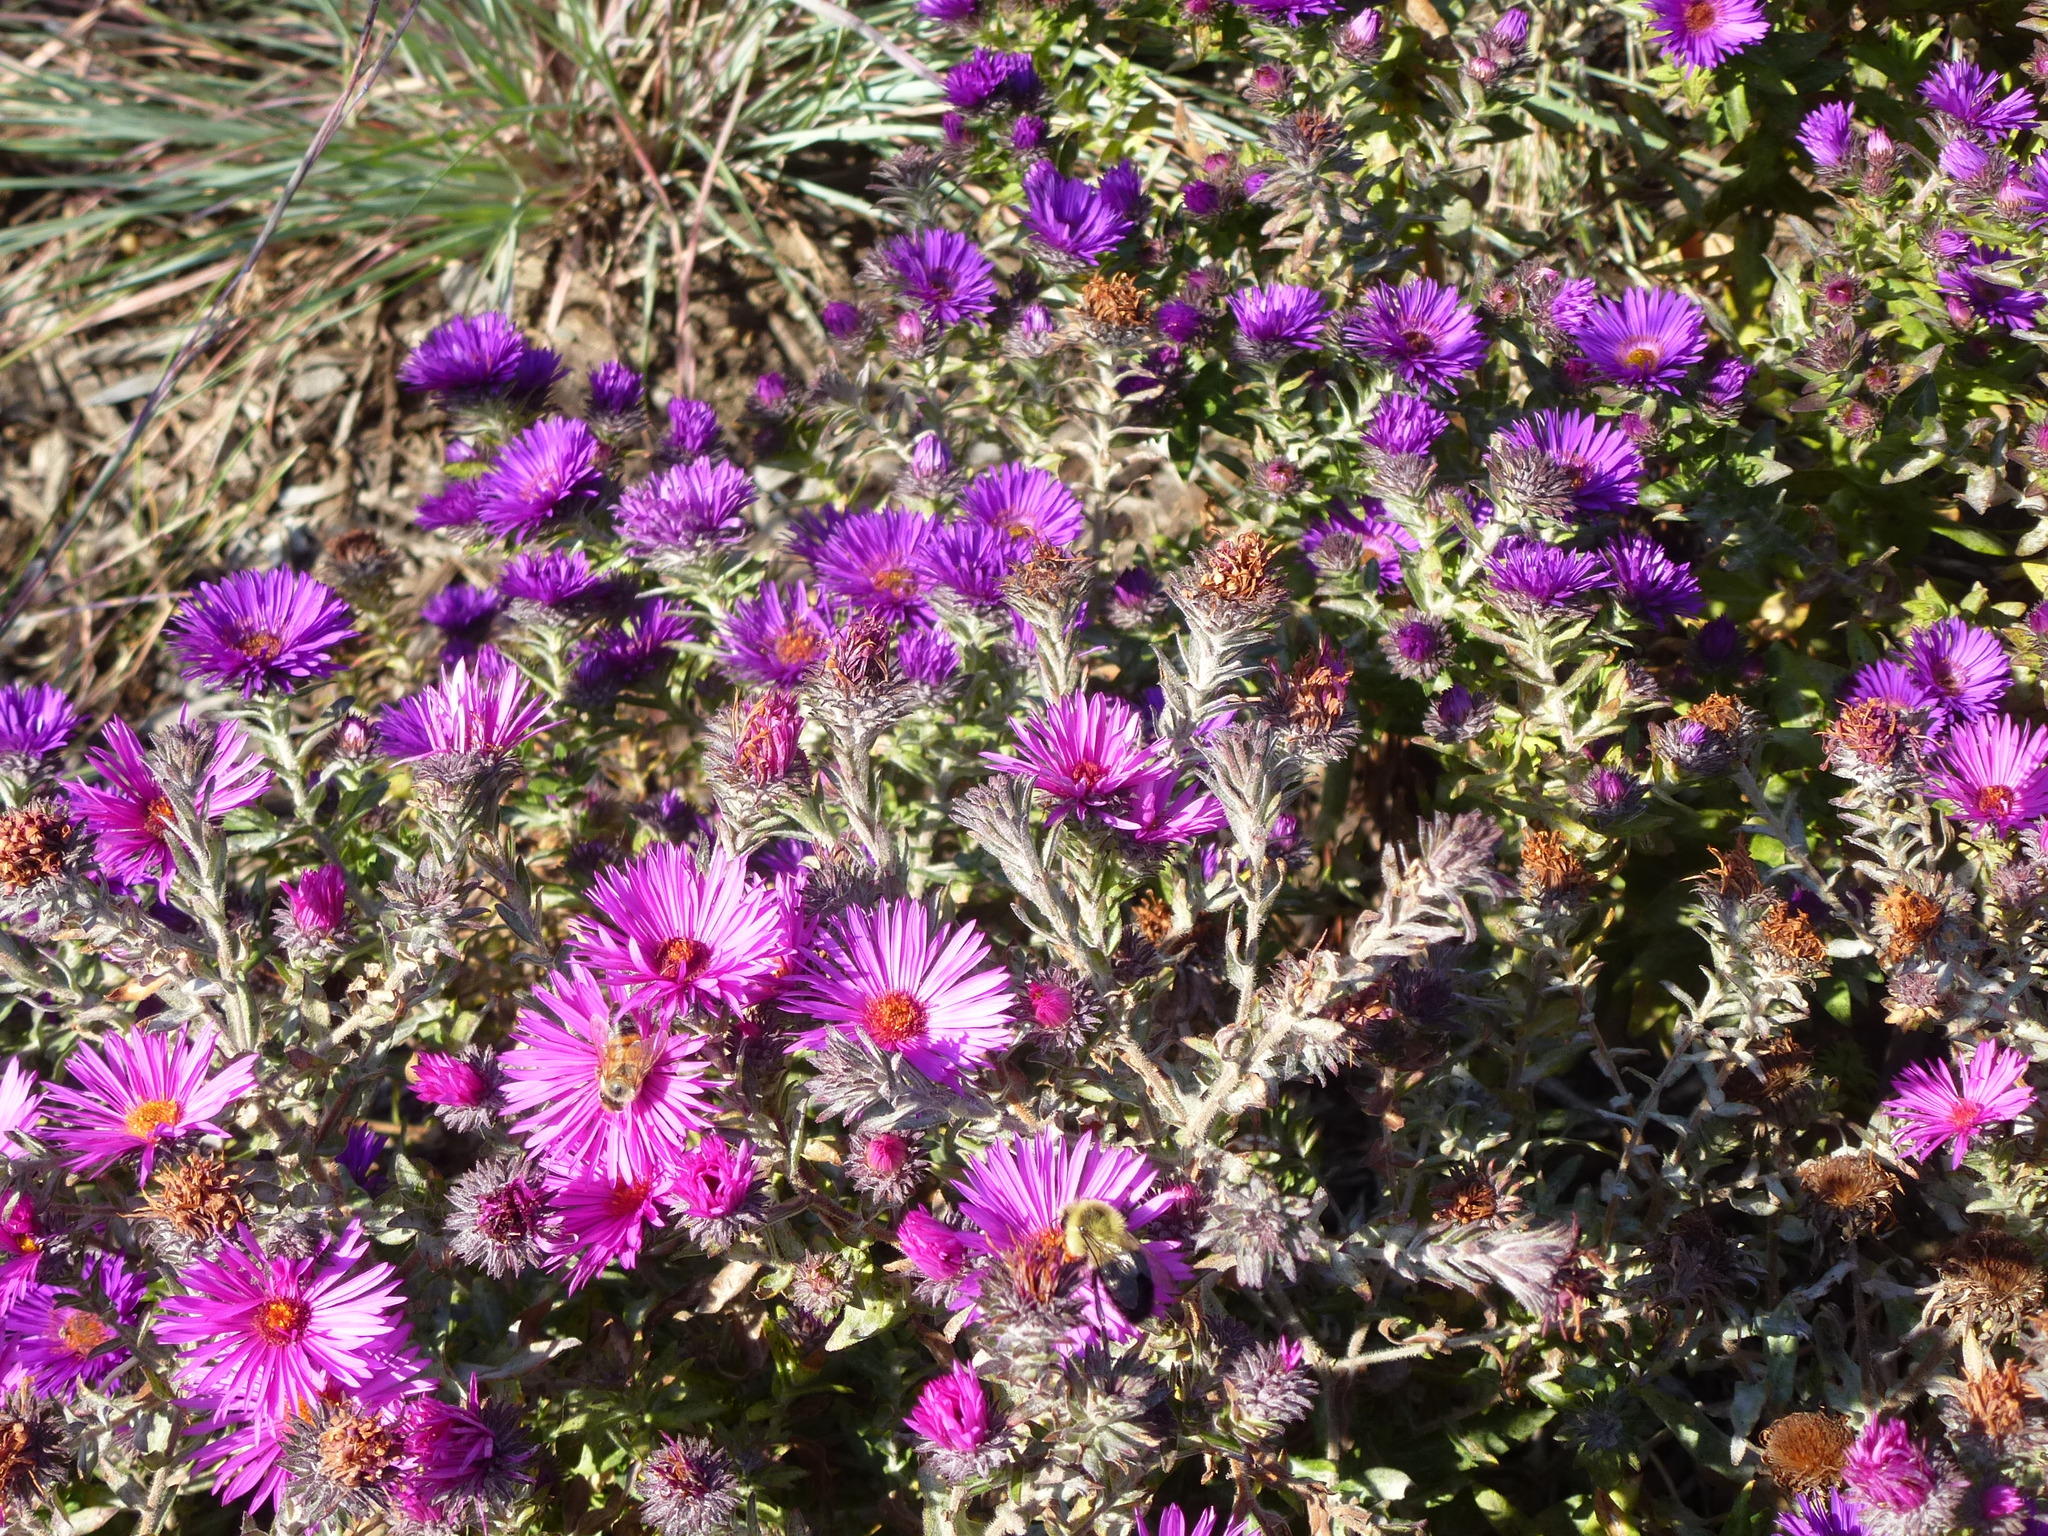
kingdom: Animalia
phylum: Arthropoda
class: Insecta
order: Hymenoptera
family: Apidae
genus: Apis
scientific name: Apis mellifera
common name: Honey bee
